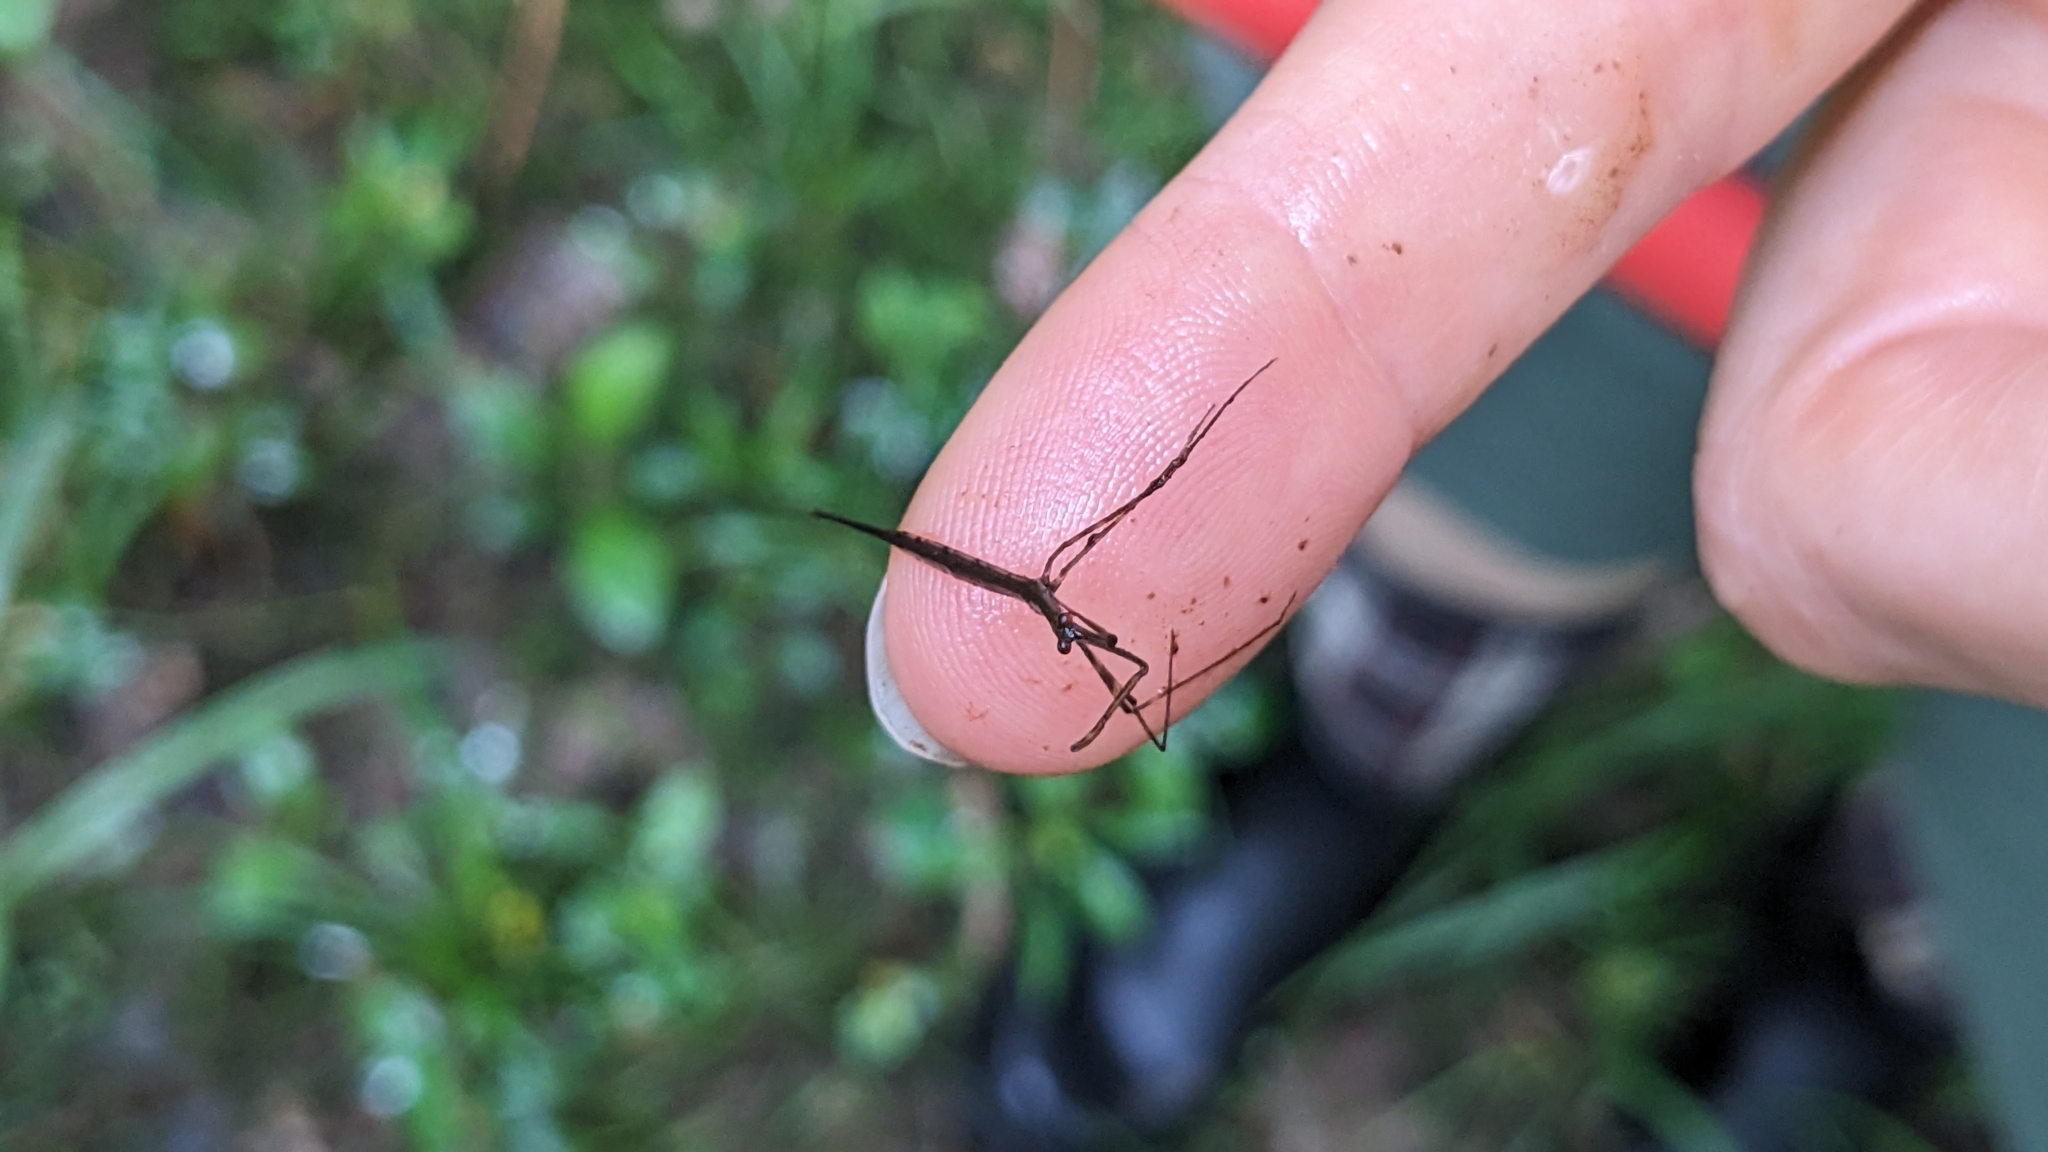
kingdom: Animalia
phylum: Arthropoda
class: Insecta
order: Hemiptera
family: Nepidae
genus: Ranatra
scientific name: Ranatra
